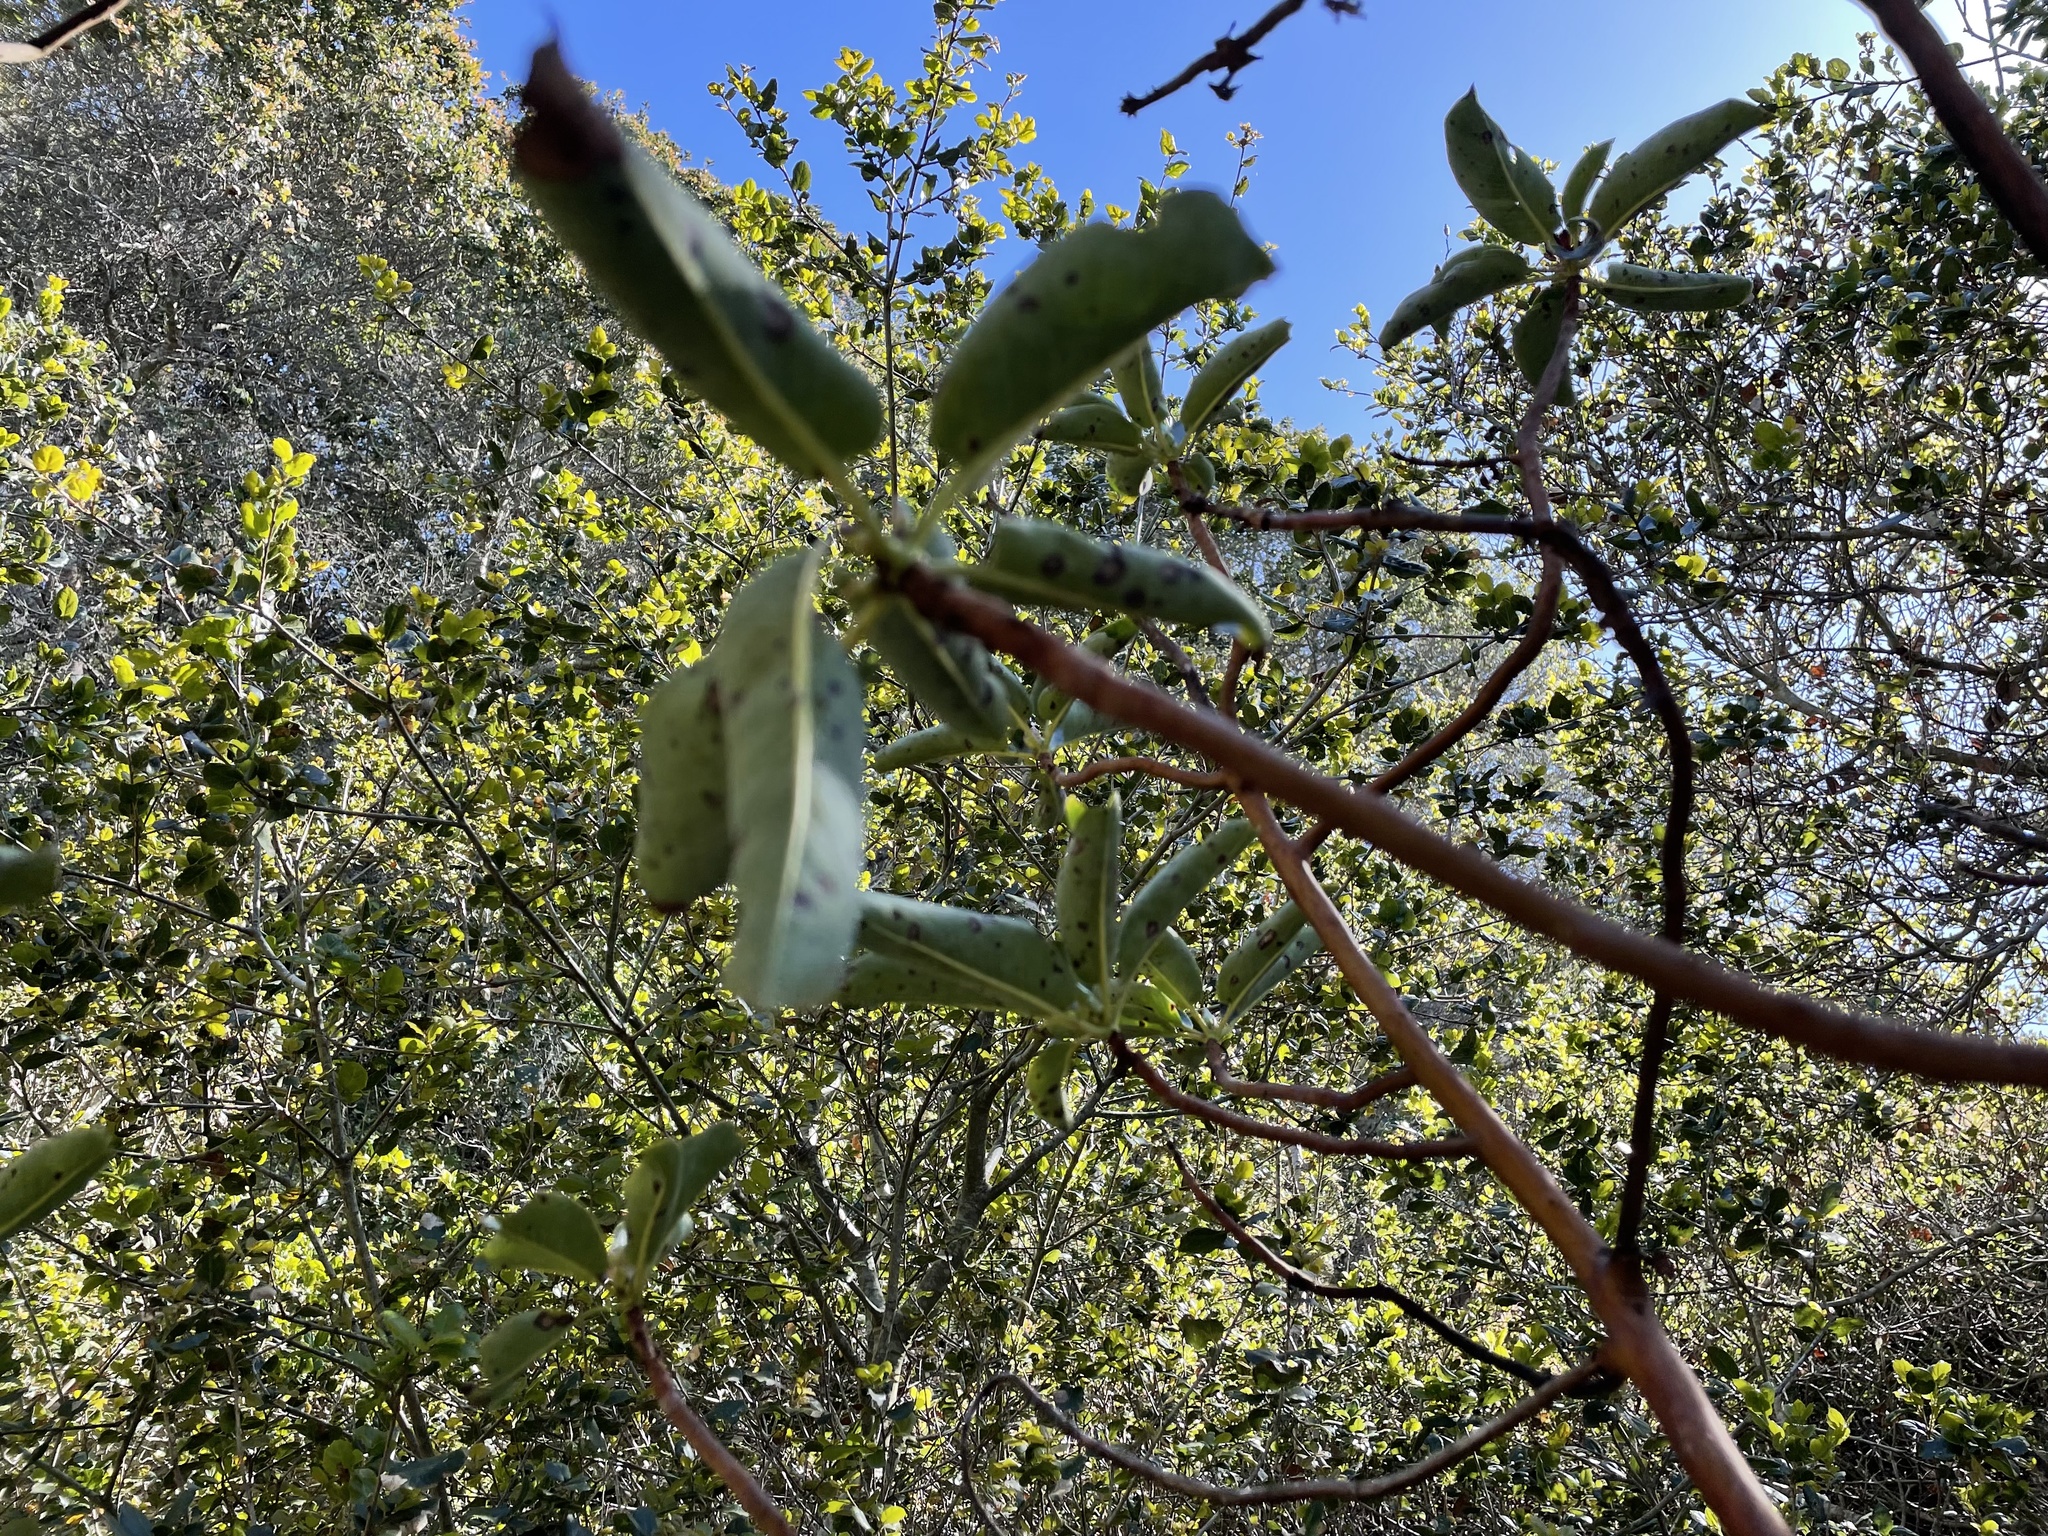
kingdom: Plantae
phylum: Tracheophyta
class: Magnoliopsida
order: Ericales
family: Ericaceae
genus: Arbutus
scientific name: Arbutus menziesii
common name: Pacific madrone
